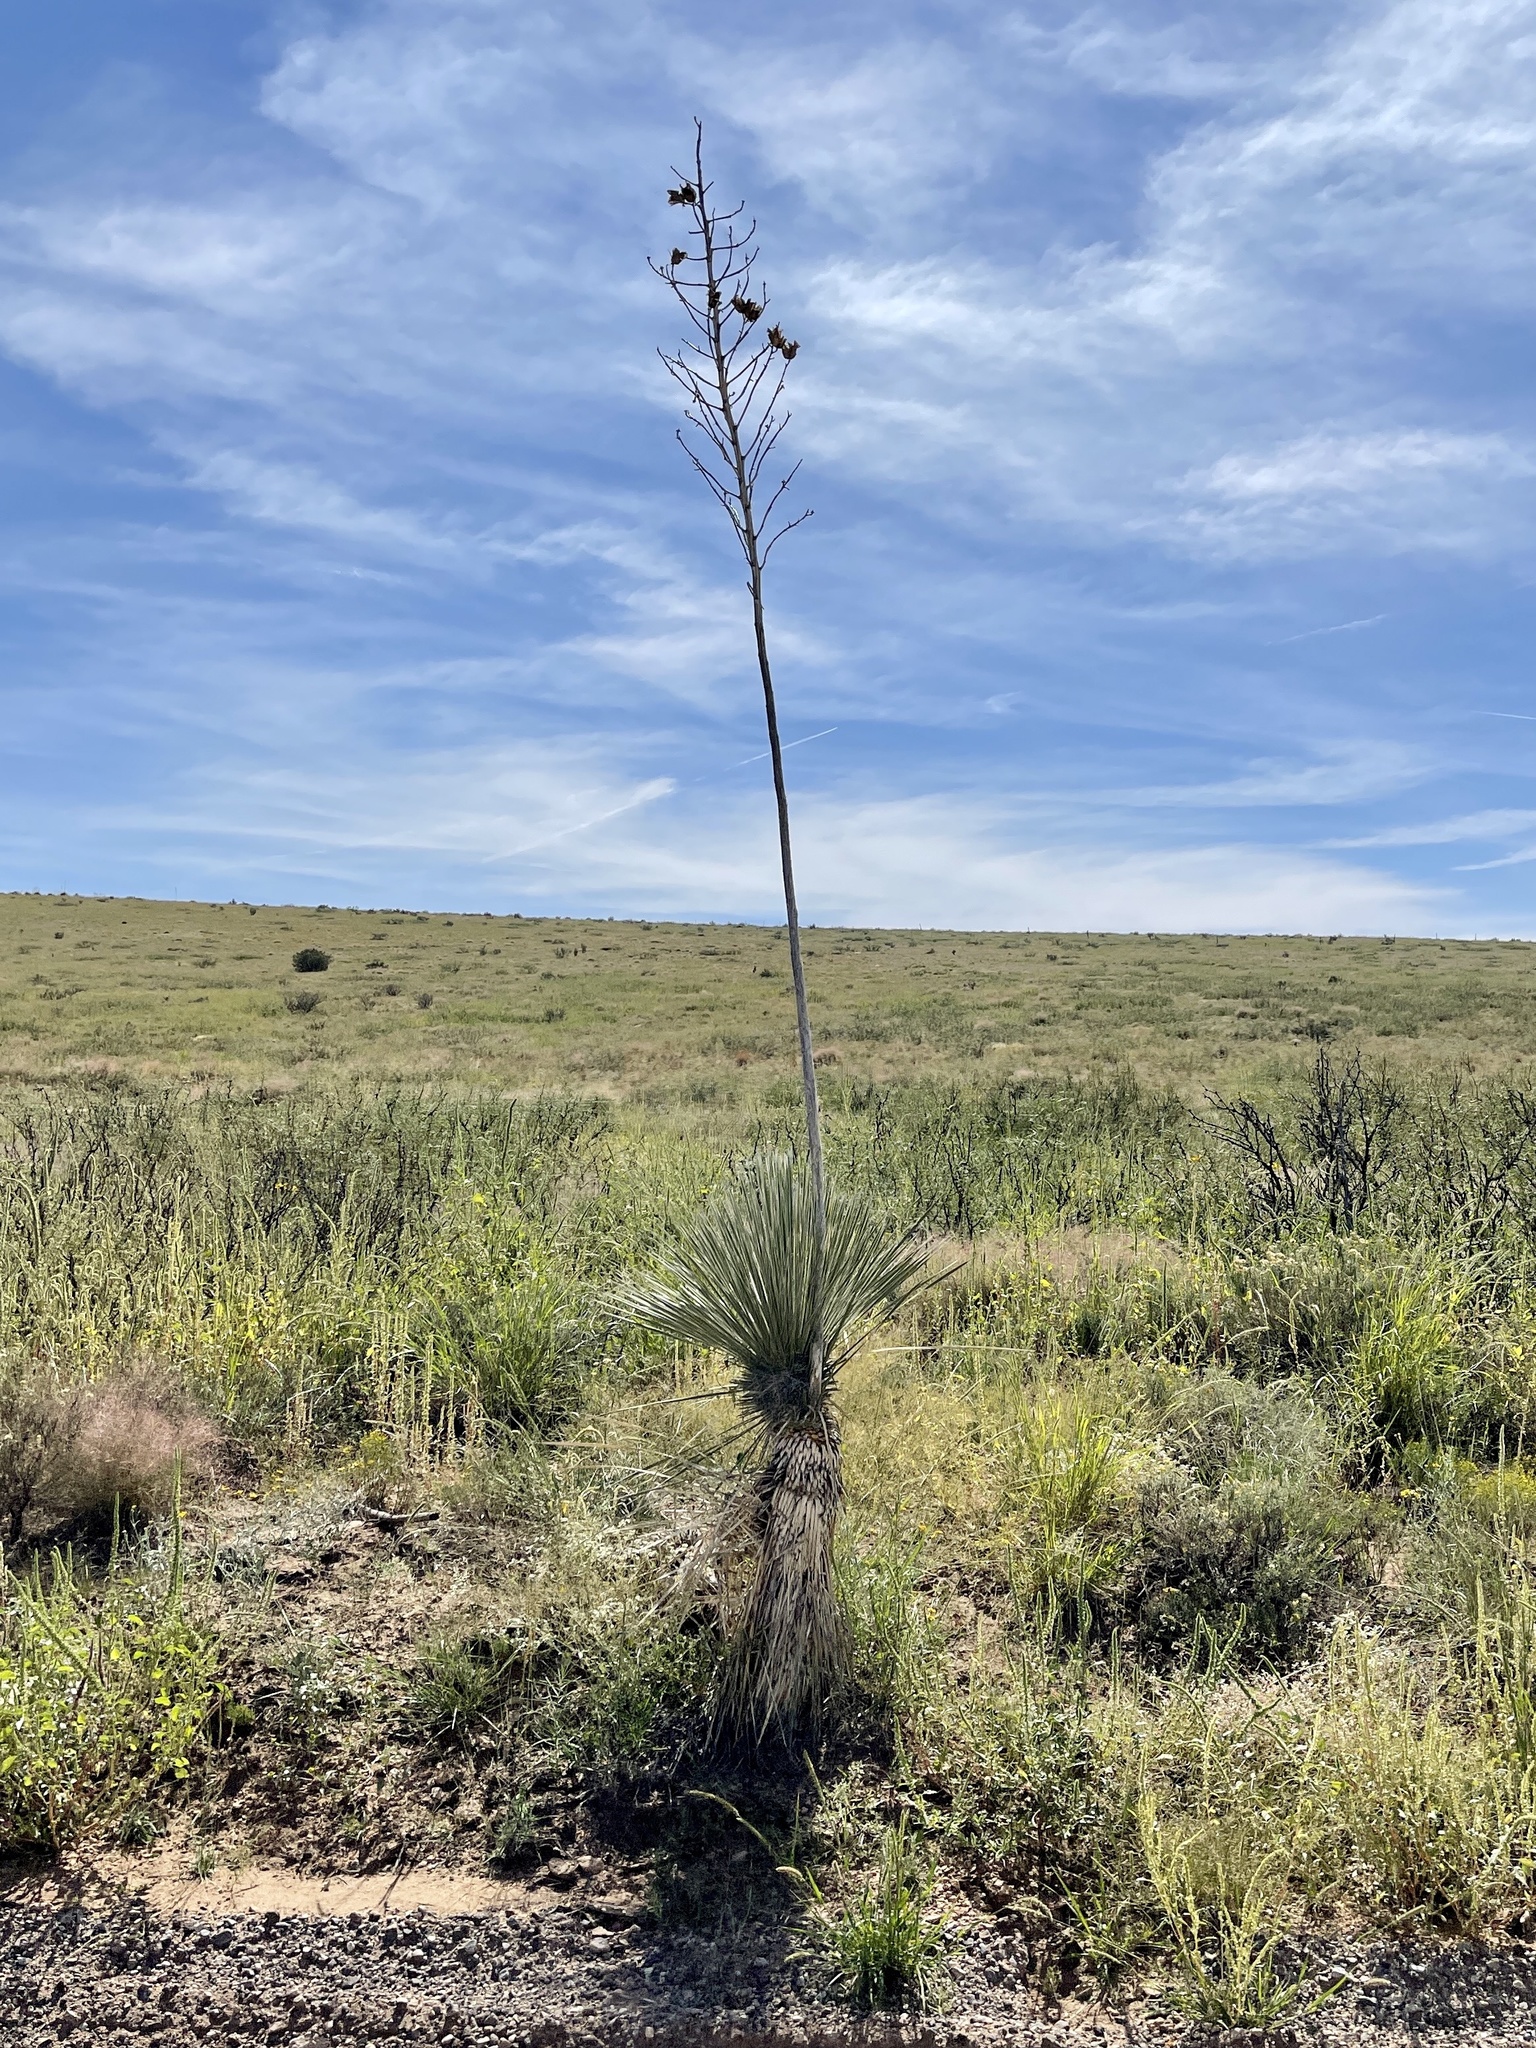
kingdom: Plantae
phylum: Tracheophyta
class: Liliopsida
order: Asparagales
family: Asparagaceae
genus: Yucca
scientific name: Yucca elata
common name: Palmella
